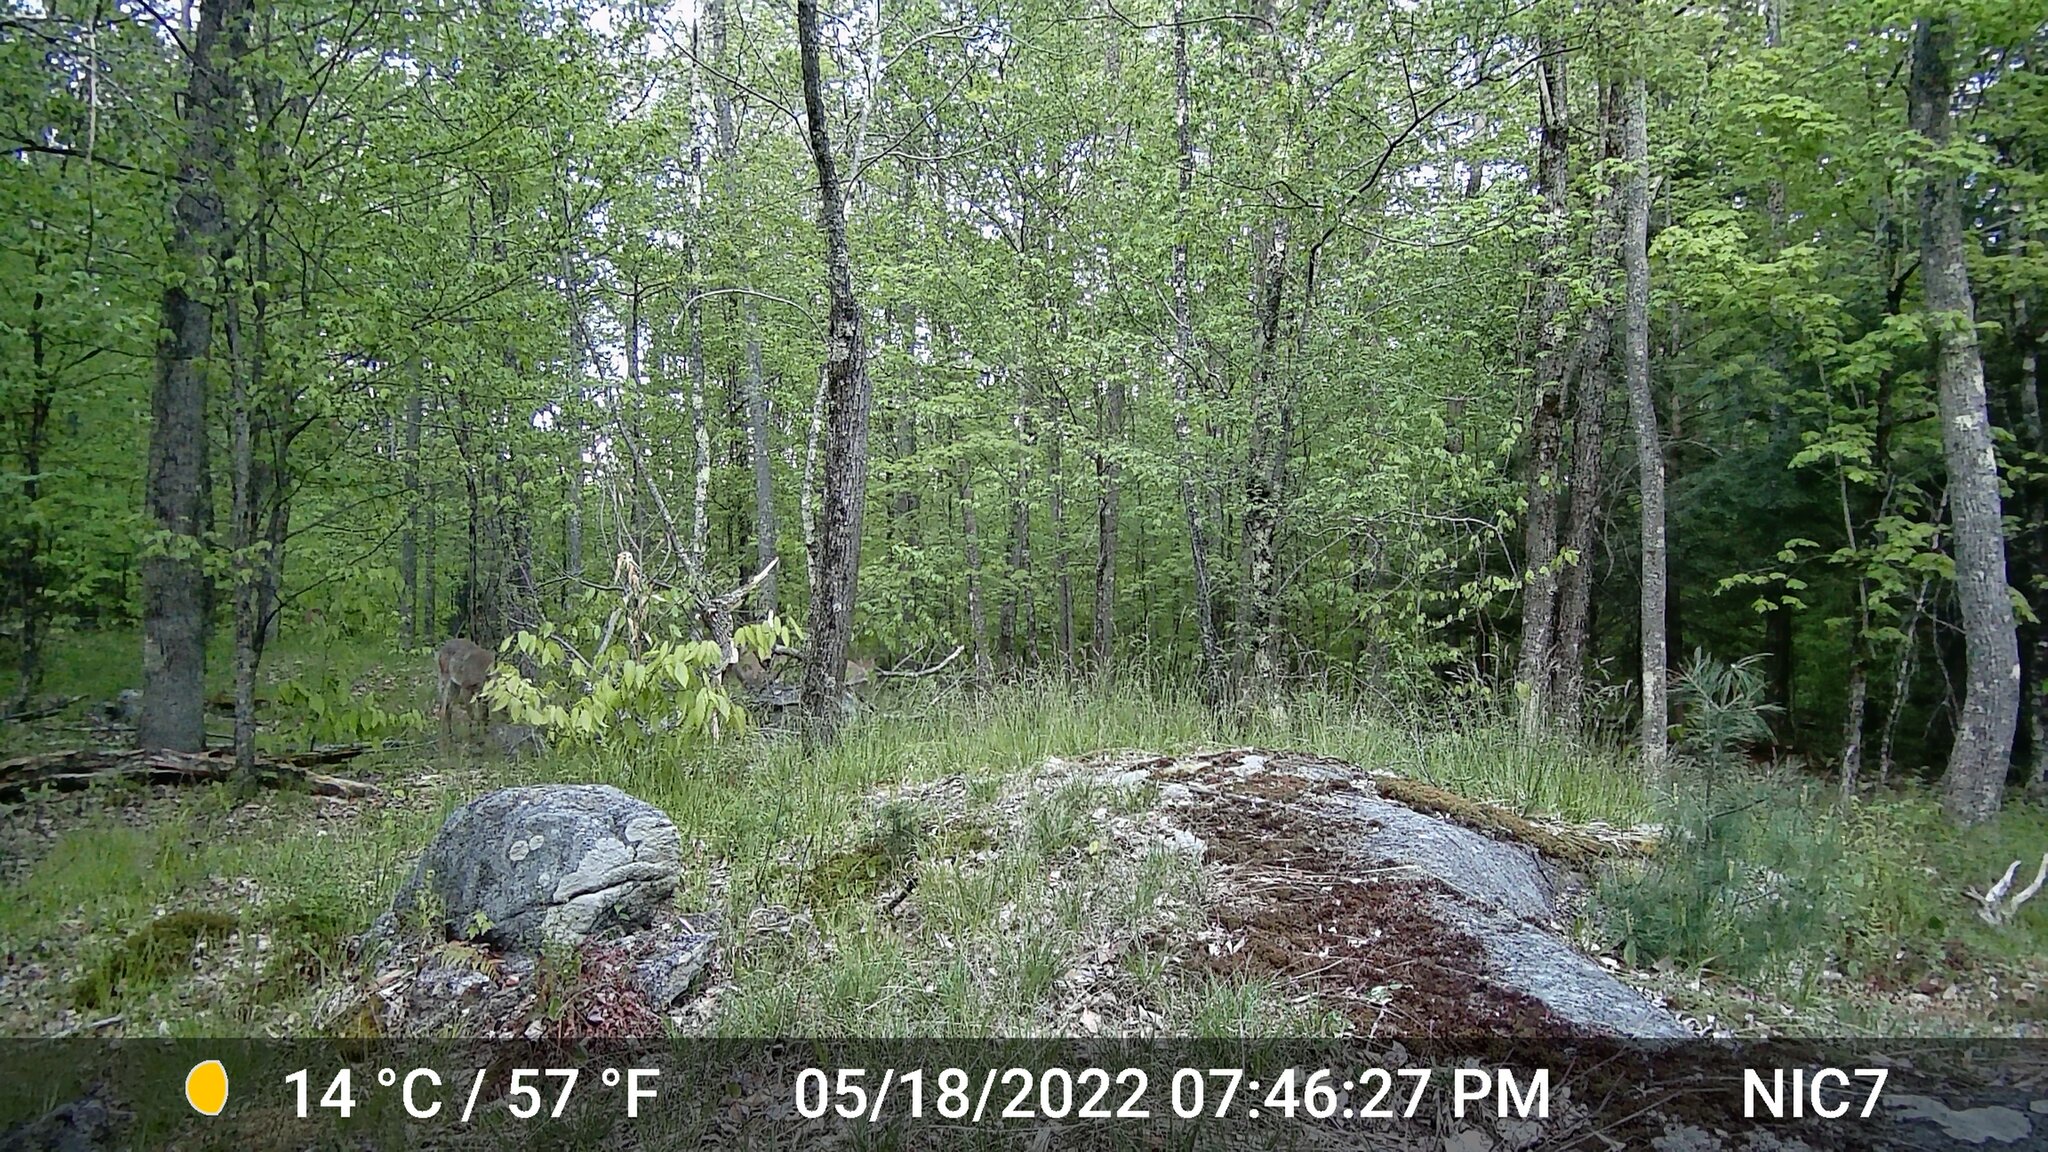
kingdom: Animalia
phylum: Chordata
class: Mammalia
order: Artiodactyla
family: Cervidae
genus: Odocoileus
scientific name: Odocoileus virginianus
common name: White-tailed deer
